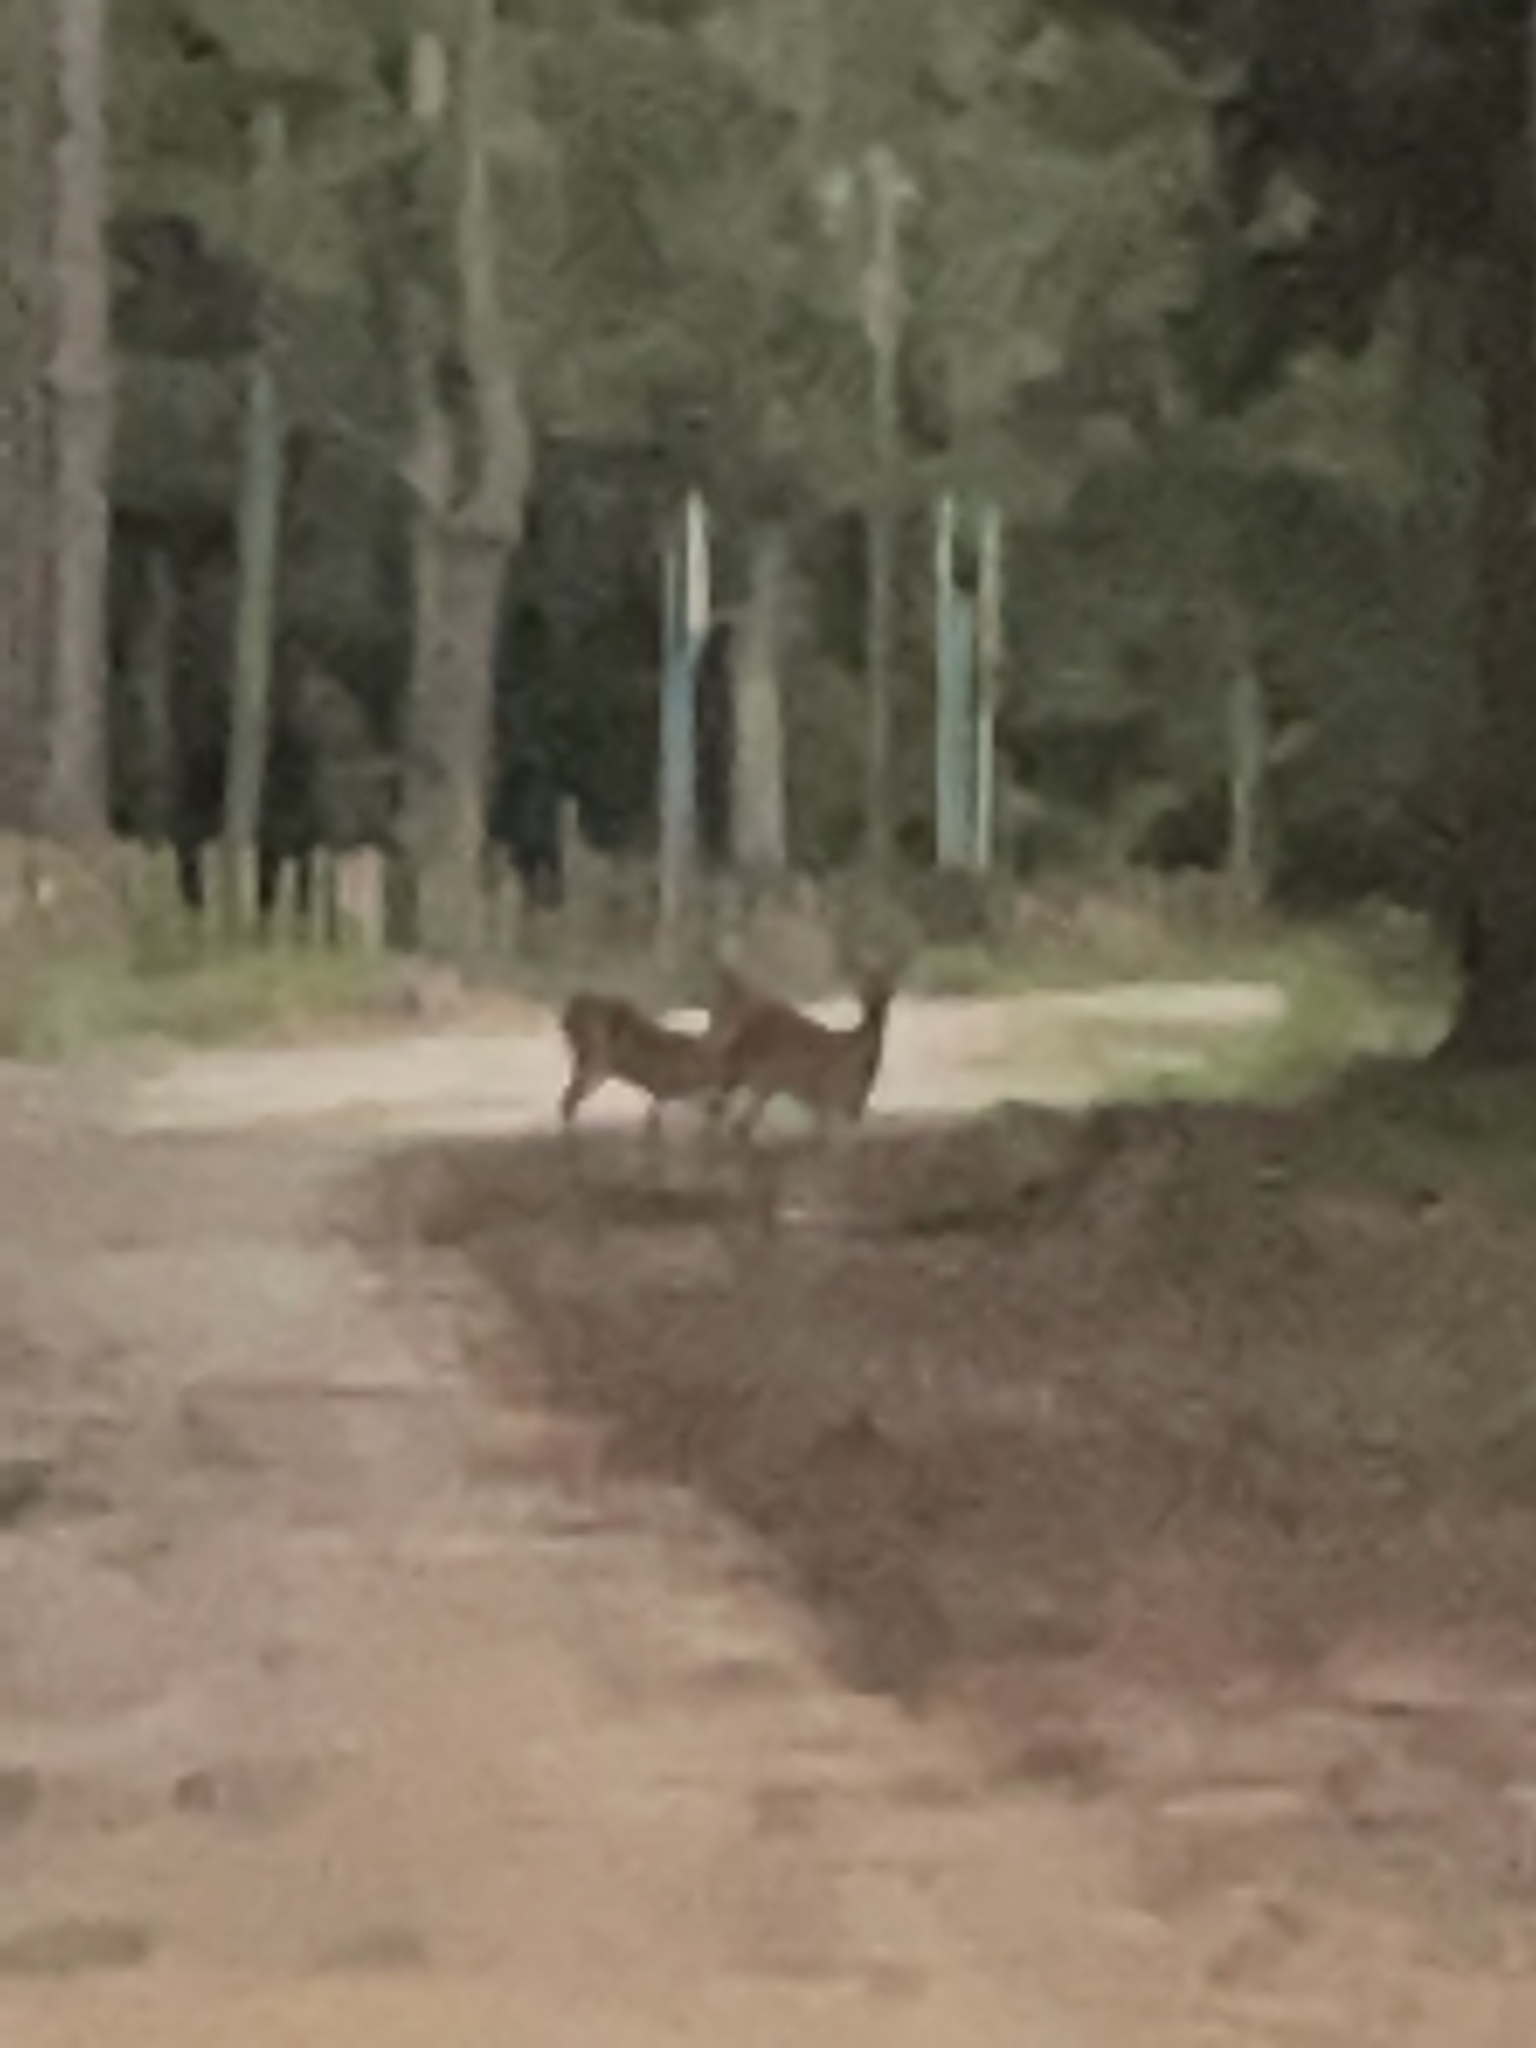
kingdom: Animalia
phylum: Chordata
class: Mammalia
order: Artiodactyla
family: Cervidae
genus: Odocoileus
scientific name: Odocoileus virginianus
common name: White-tailed deer
